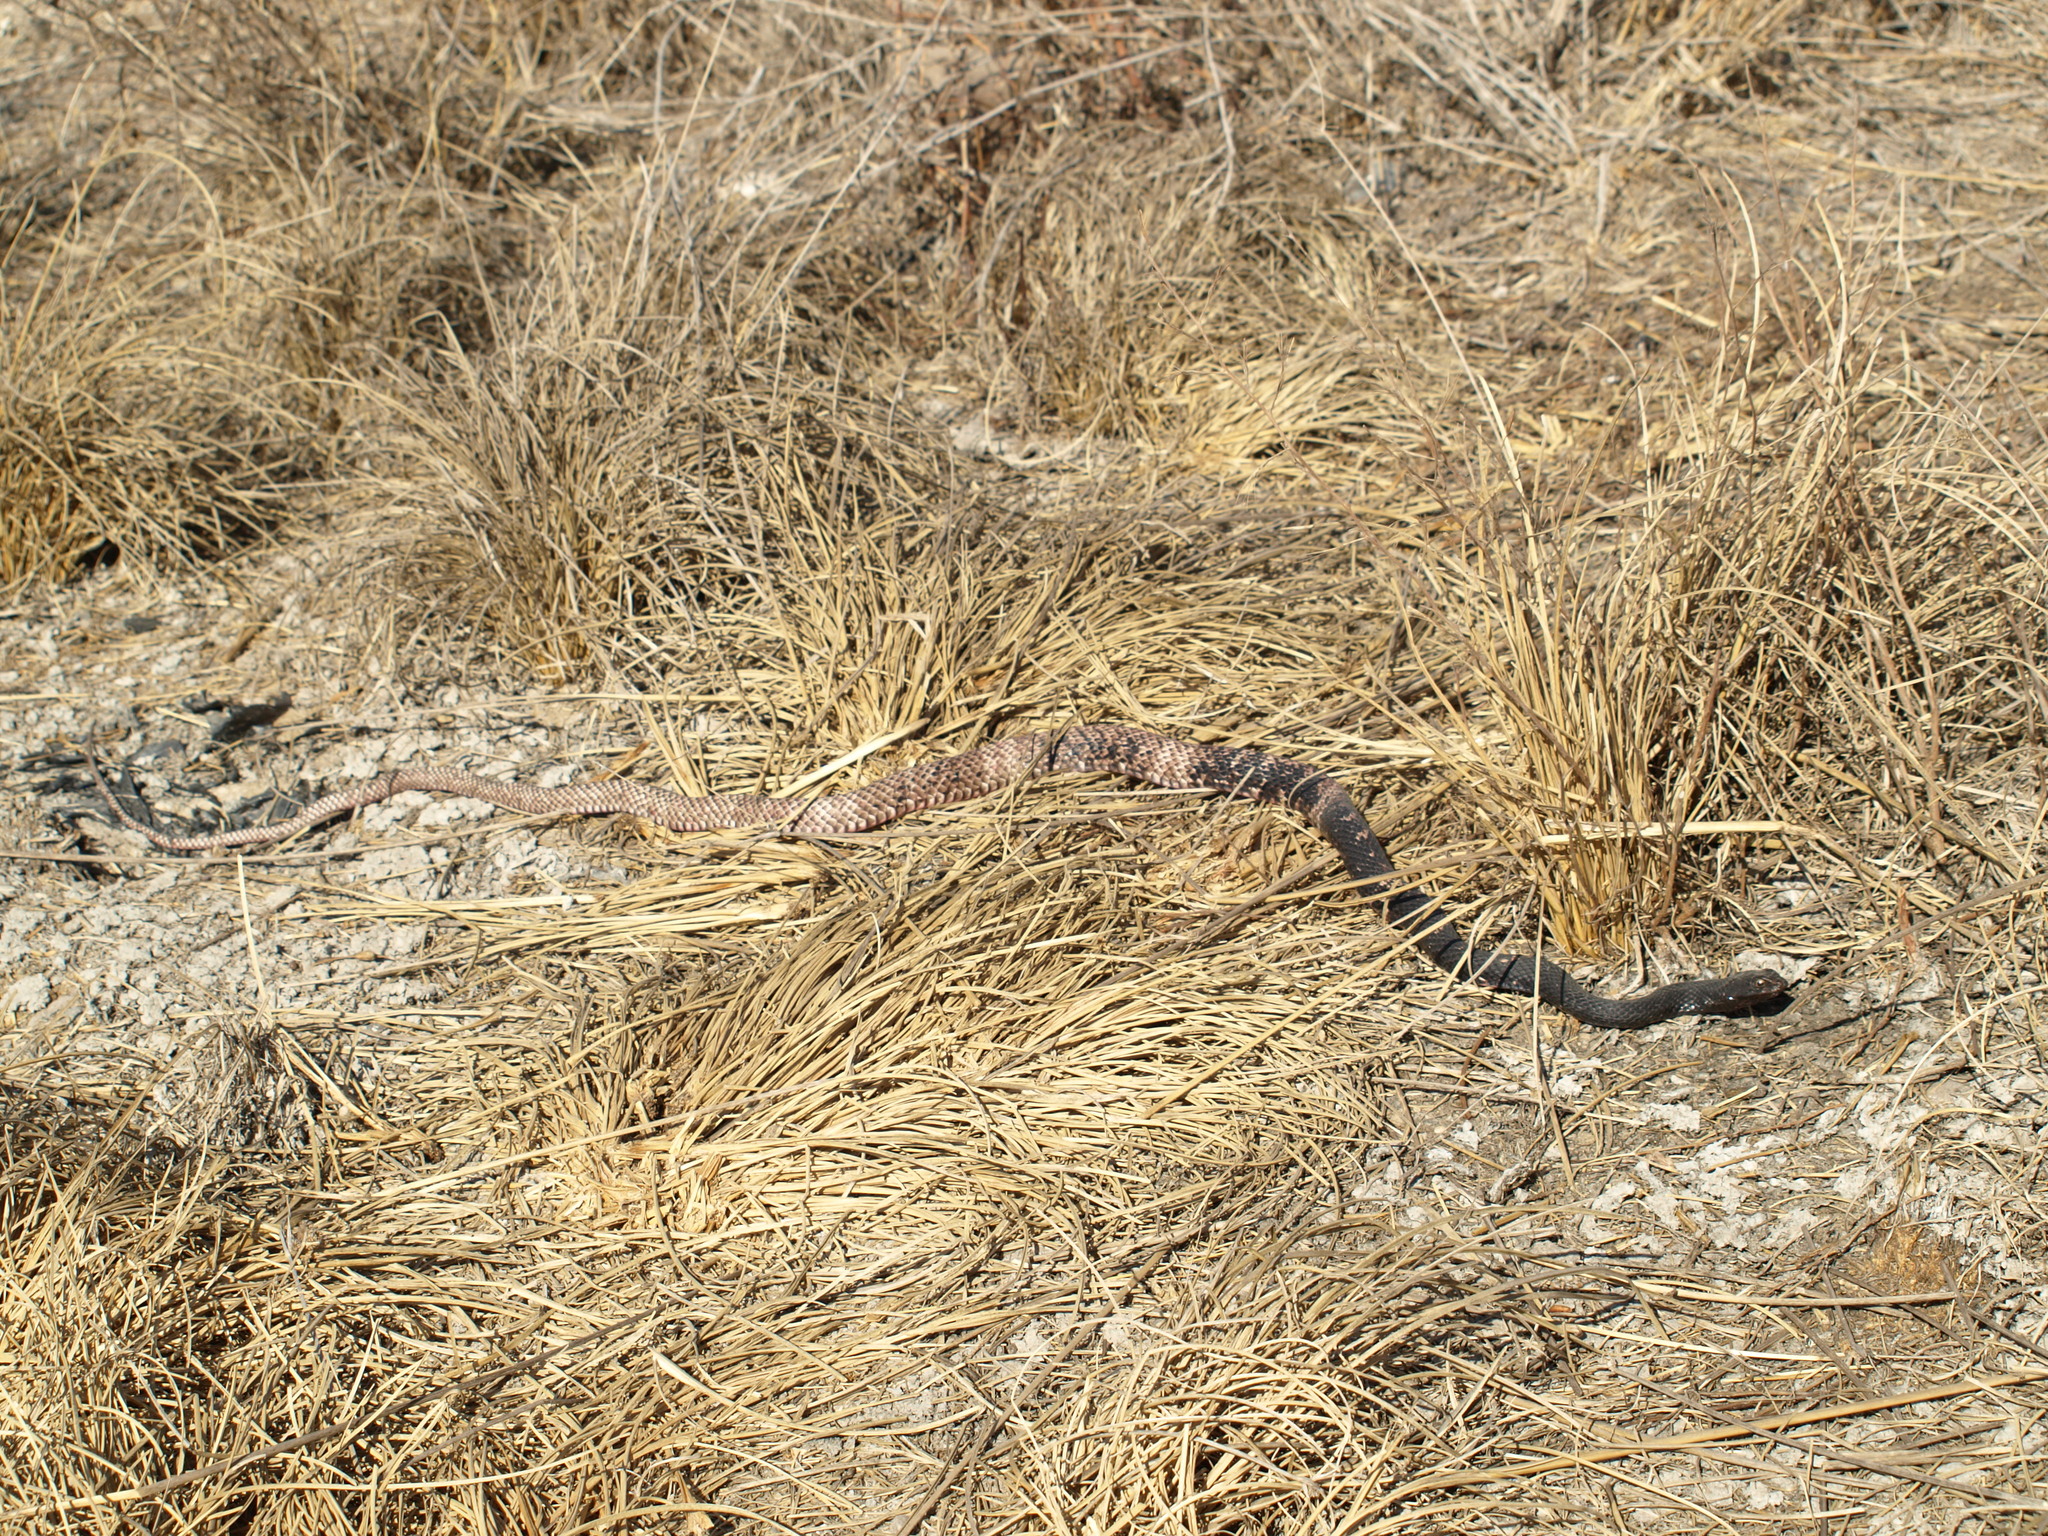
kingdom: Animalia
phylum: Chordata
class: Squamata
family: Colubridae
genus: Masticophis
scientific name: Masticophis flagellum
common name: Coachwhip
